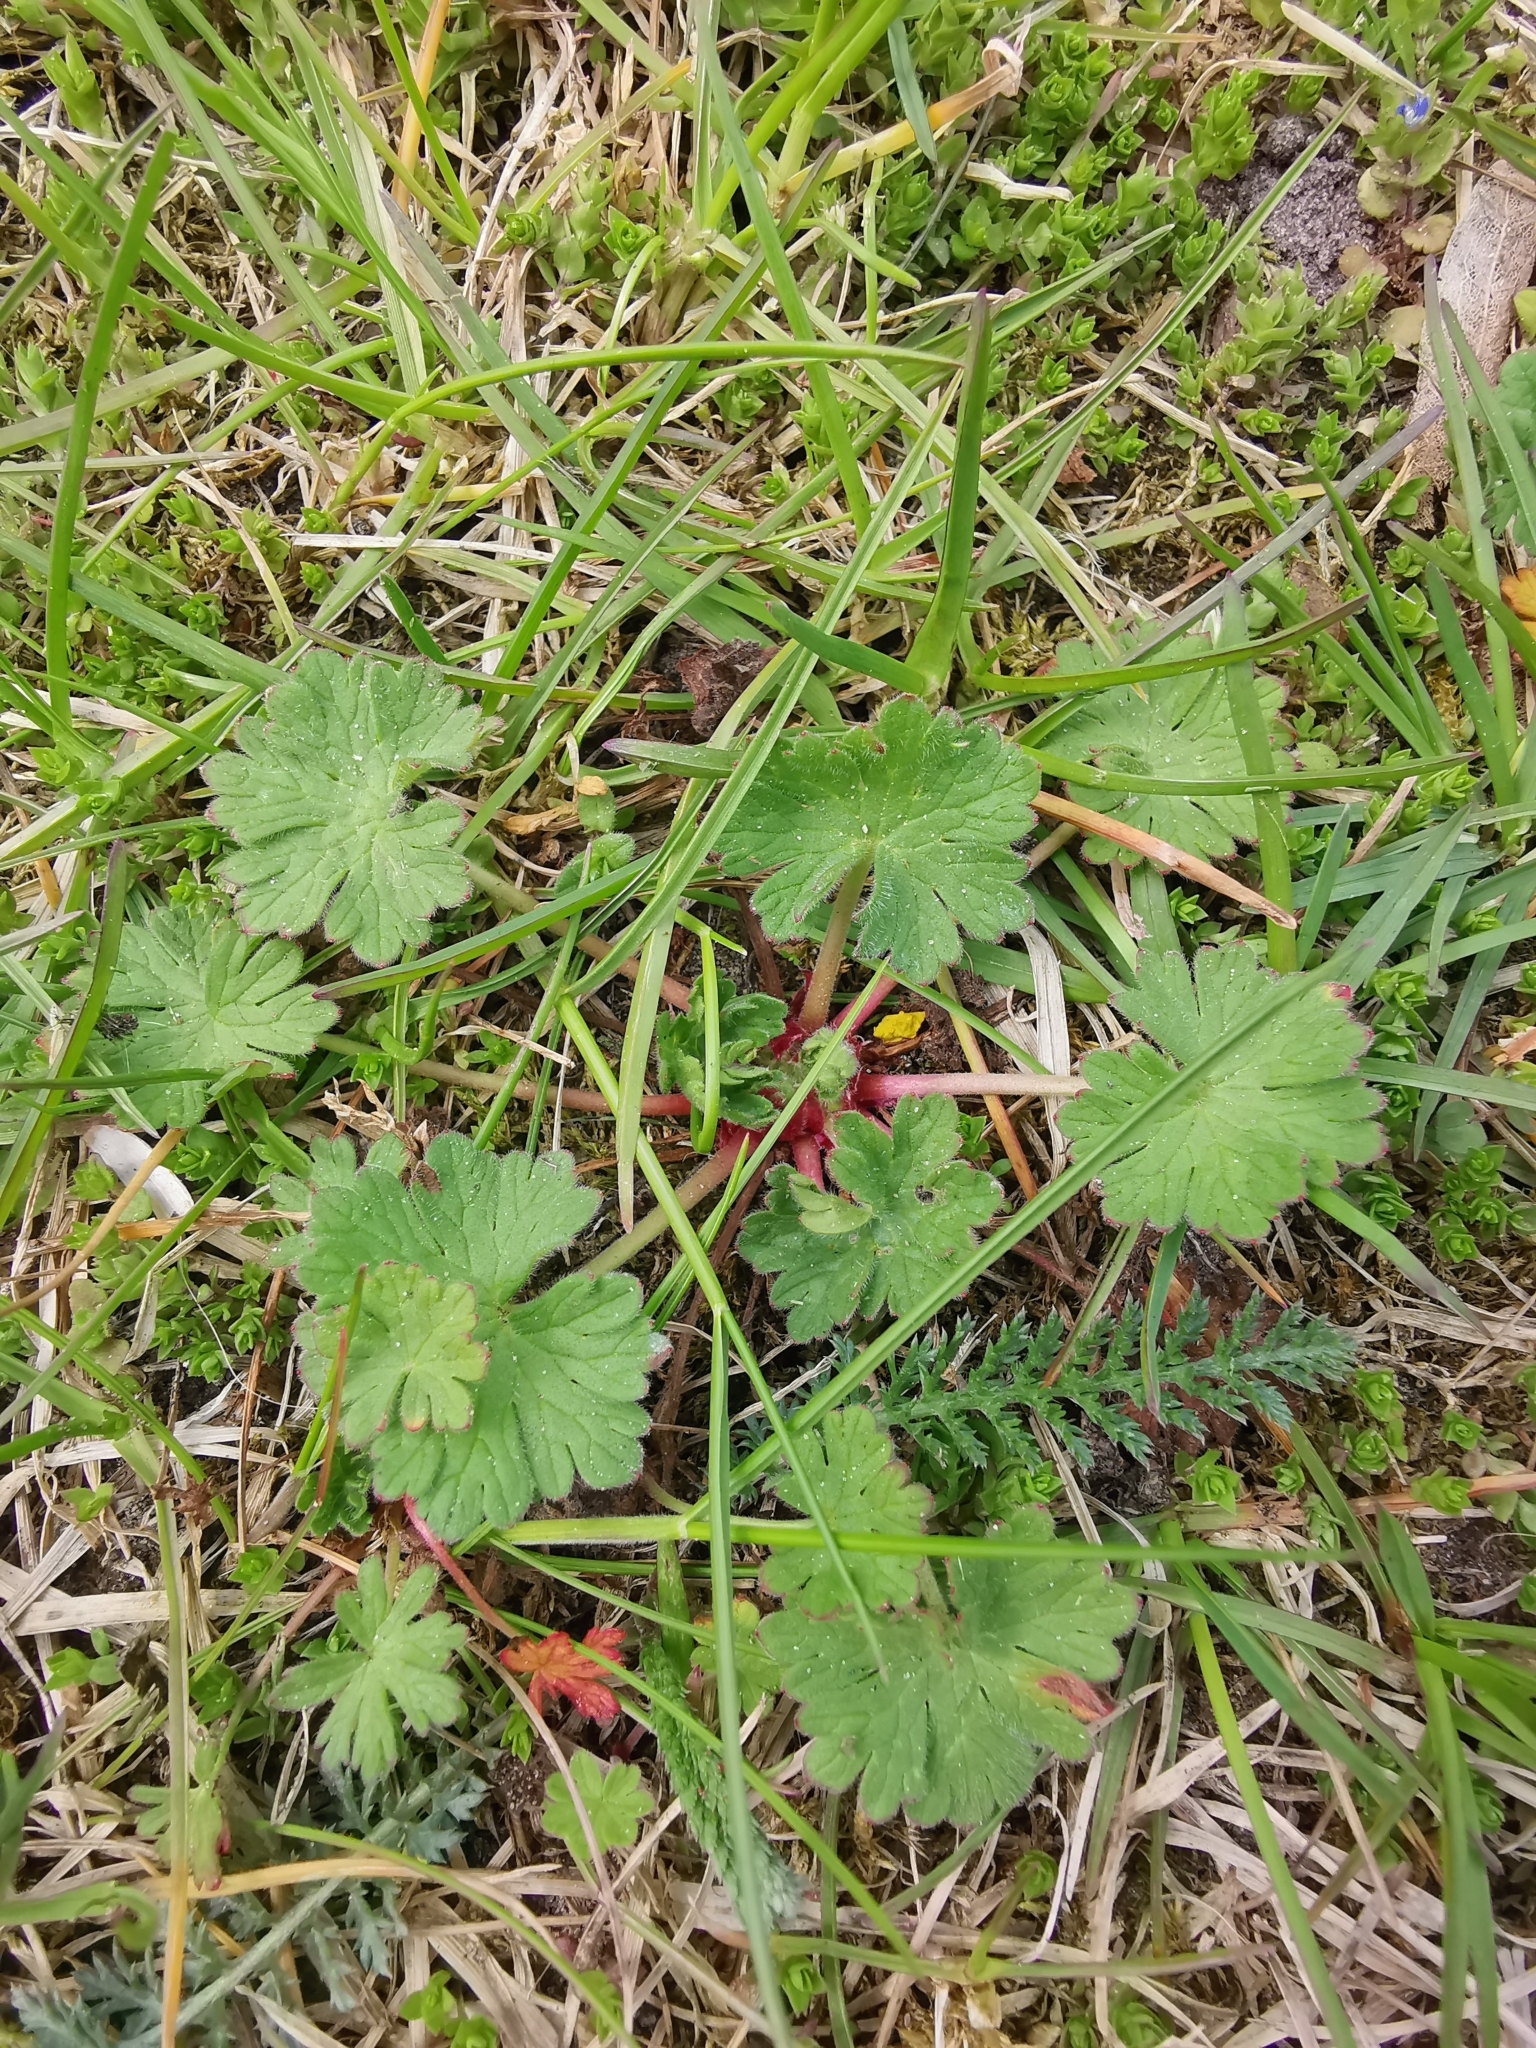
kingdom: Plantae
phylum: Tracheophyta
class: Magnoliopsida
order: Geraniales
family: Geraniaceae
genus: Geranium
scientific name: Geranium molle
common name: Dove's-foot crane's-bill
